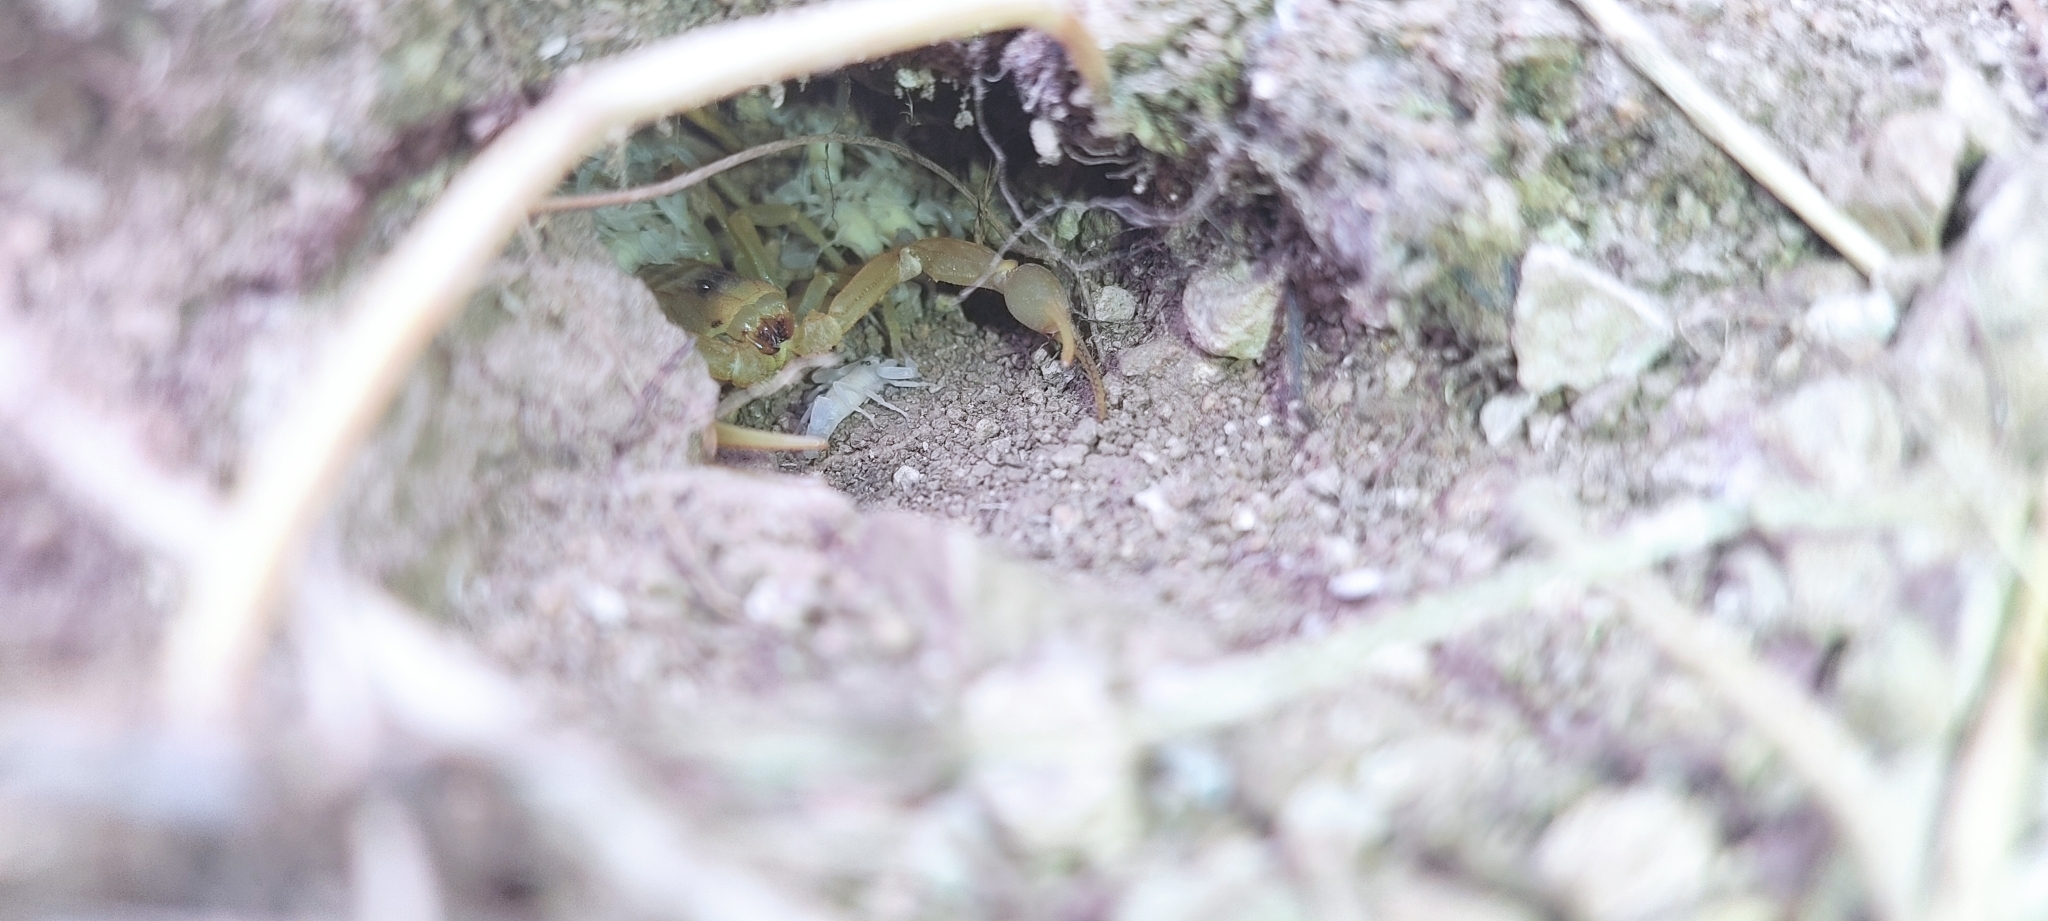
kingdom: Animalia
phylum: Arthropoda
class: Arachnida
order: Scorpiones
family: Buthidae
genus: Buthus
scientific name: Buthus occitanus
